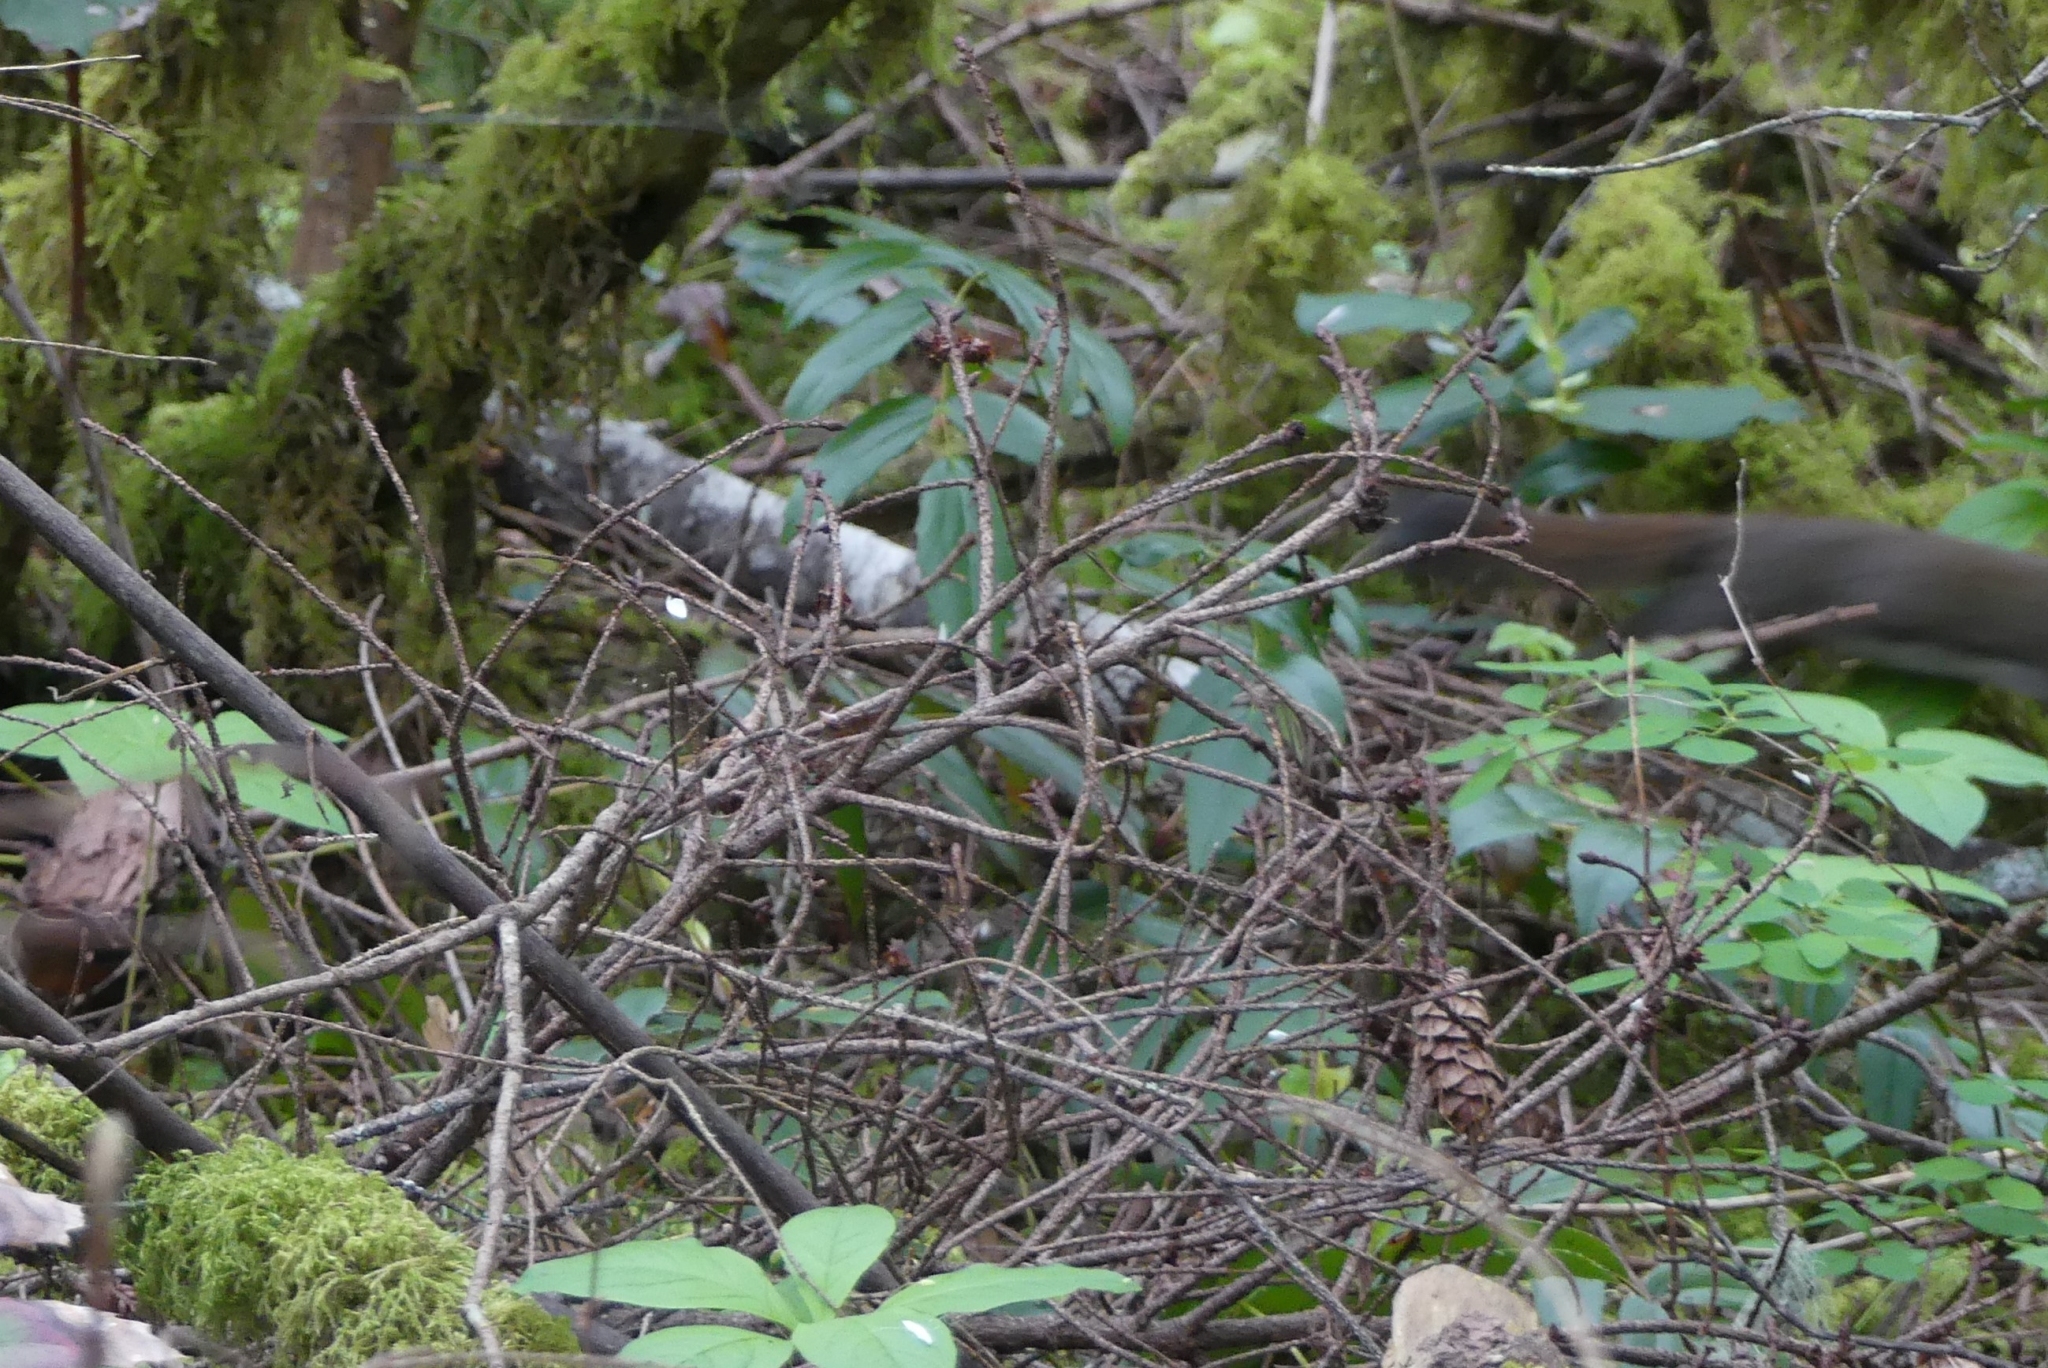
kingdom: Animalia
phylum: Chordata
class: Mammalia
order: Rodentia
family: Sciuridae
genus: Tamiasciurus
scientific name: Tamiasciurus hudsonicus
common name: Red squirrel
